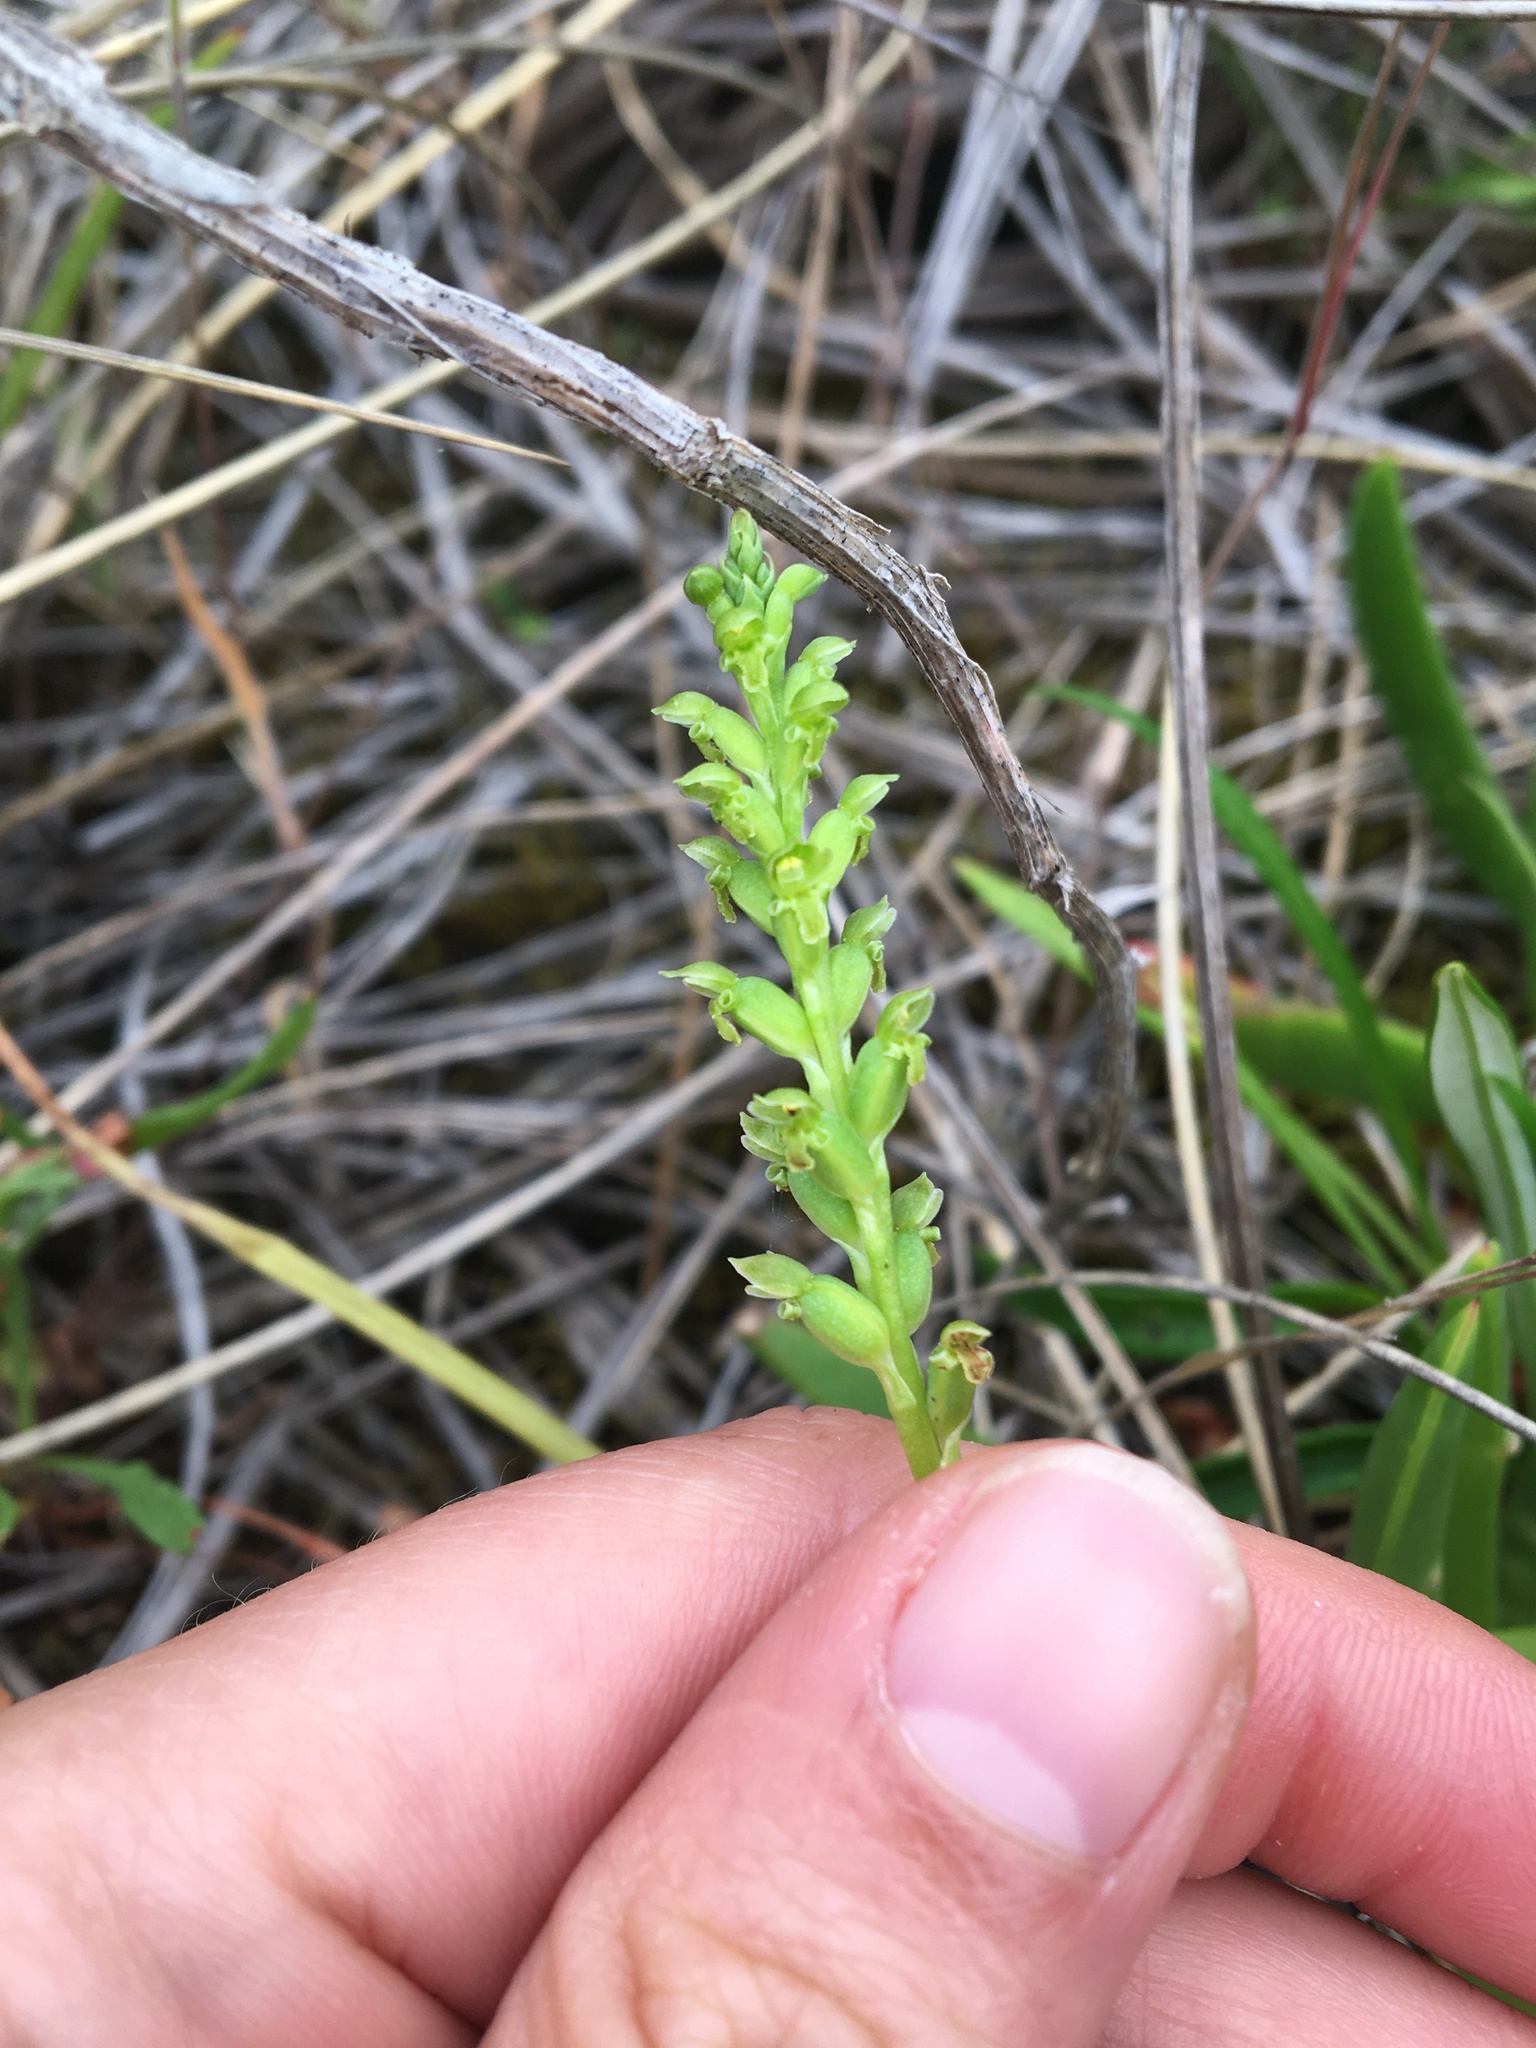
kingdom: Plantae
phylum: Tracheophyta
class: Liliopsida
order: Asparagales
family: Orchidaceae
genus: Microtis
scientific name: Microtis unifolia
